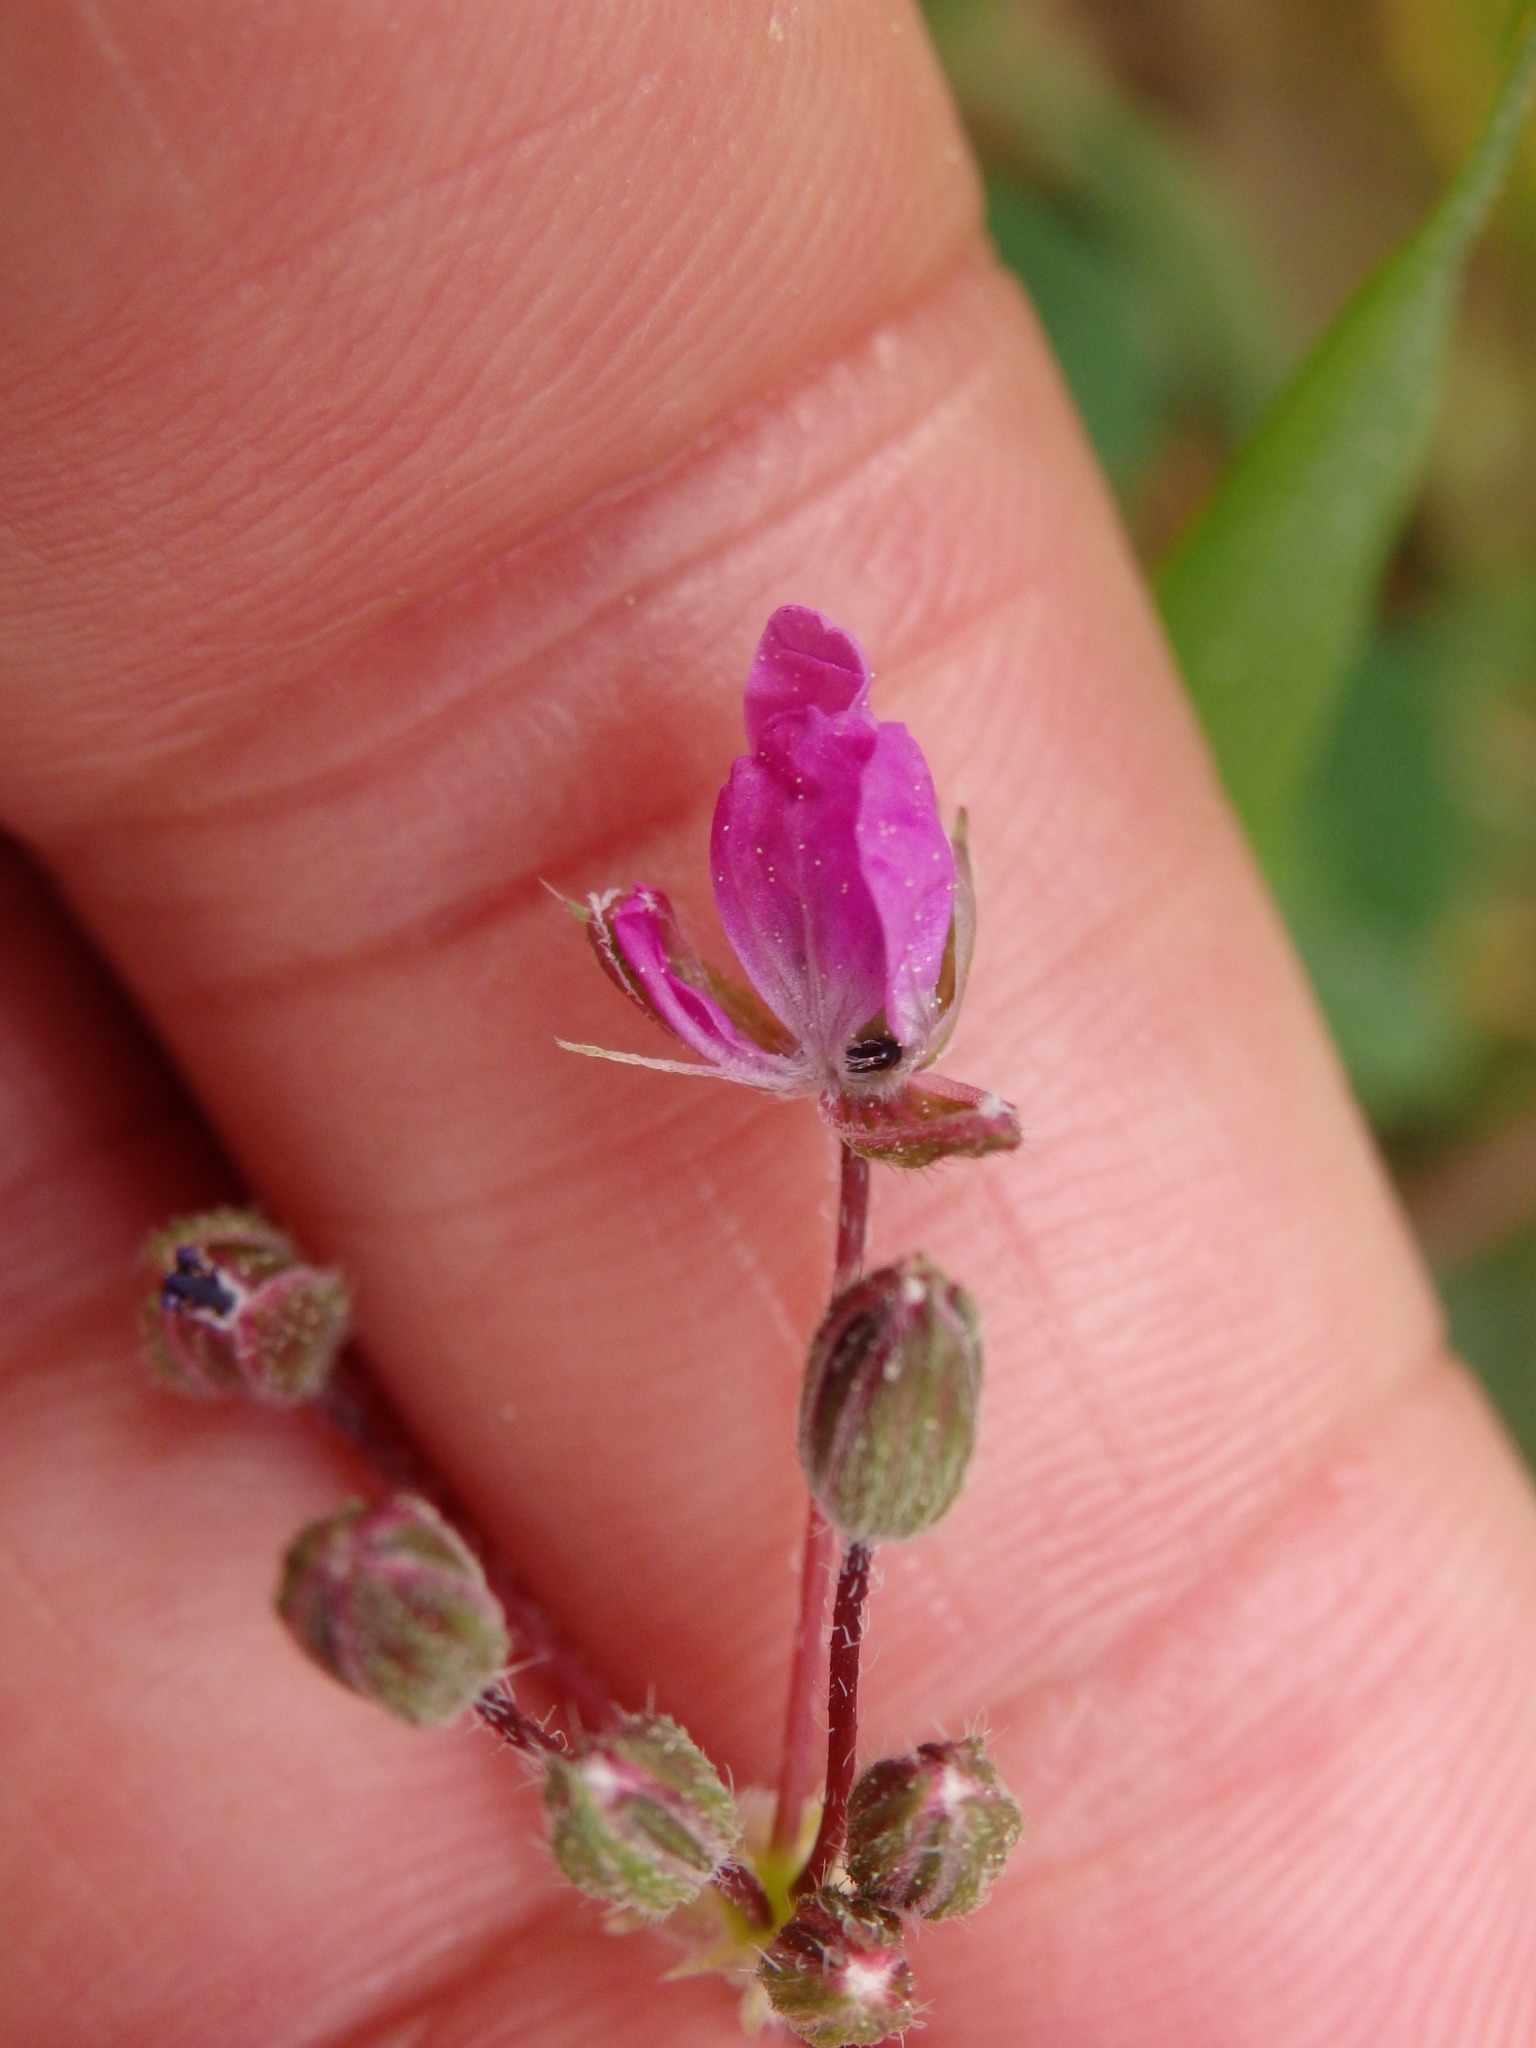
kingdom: Plantae
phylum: Tracheophyta
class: Magnoliopsida
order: Geraniales
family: Geraniaceae
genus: Erodium
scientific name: Erodium cicutarium
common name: Common stork's-bill
